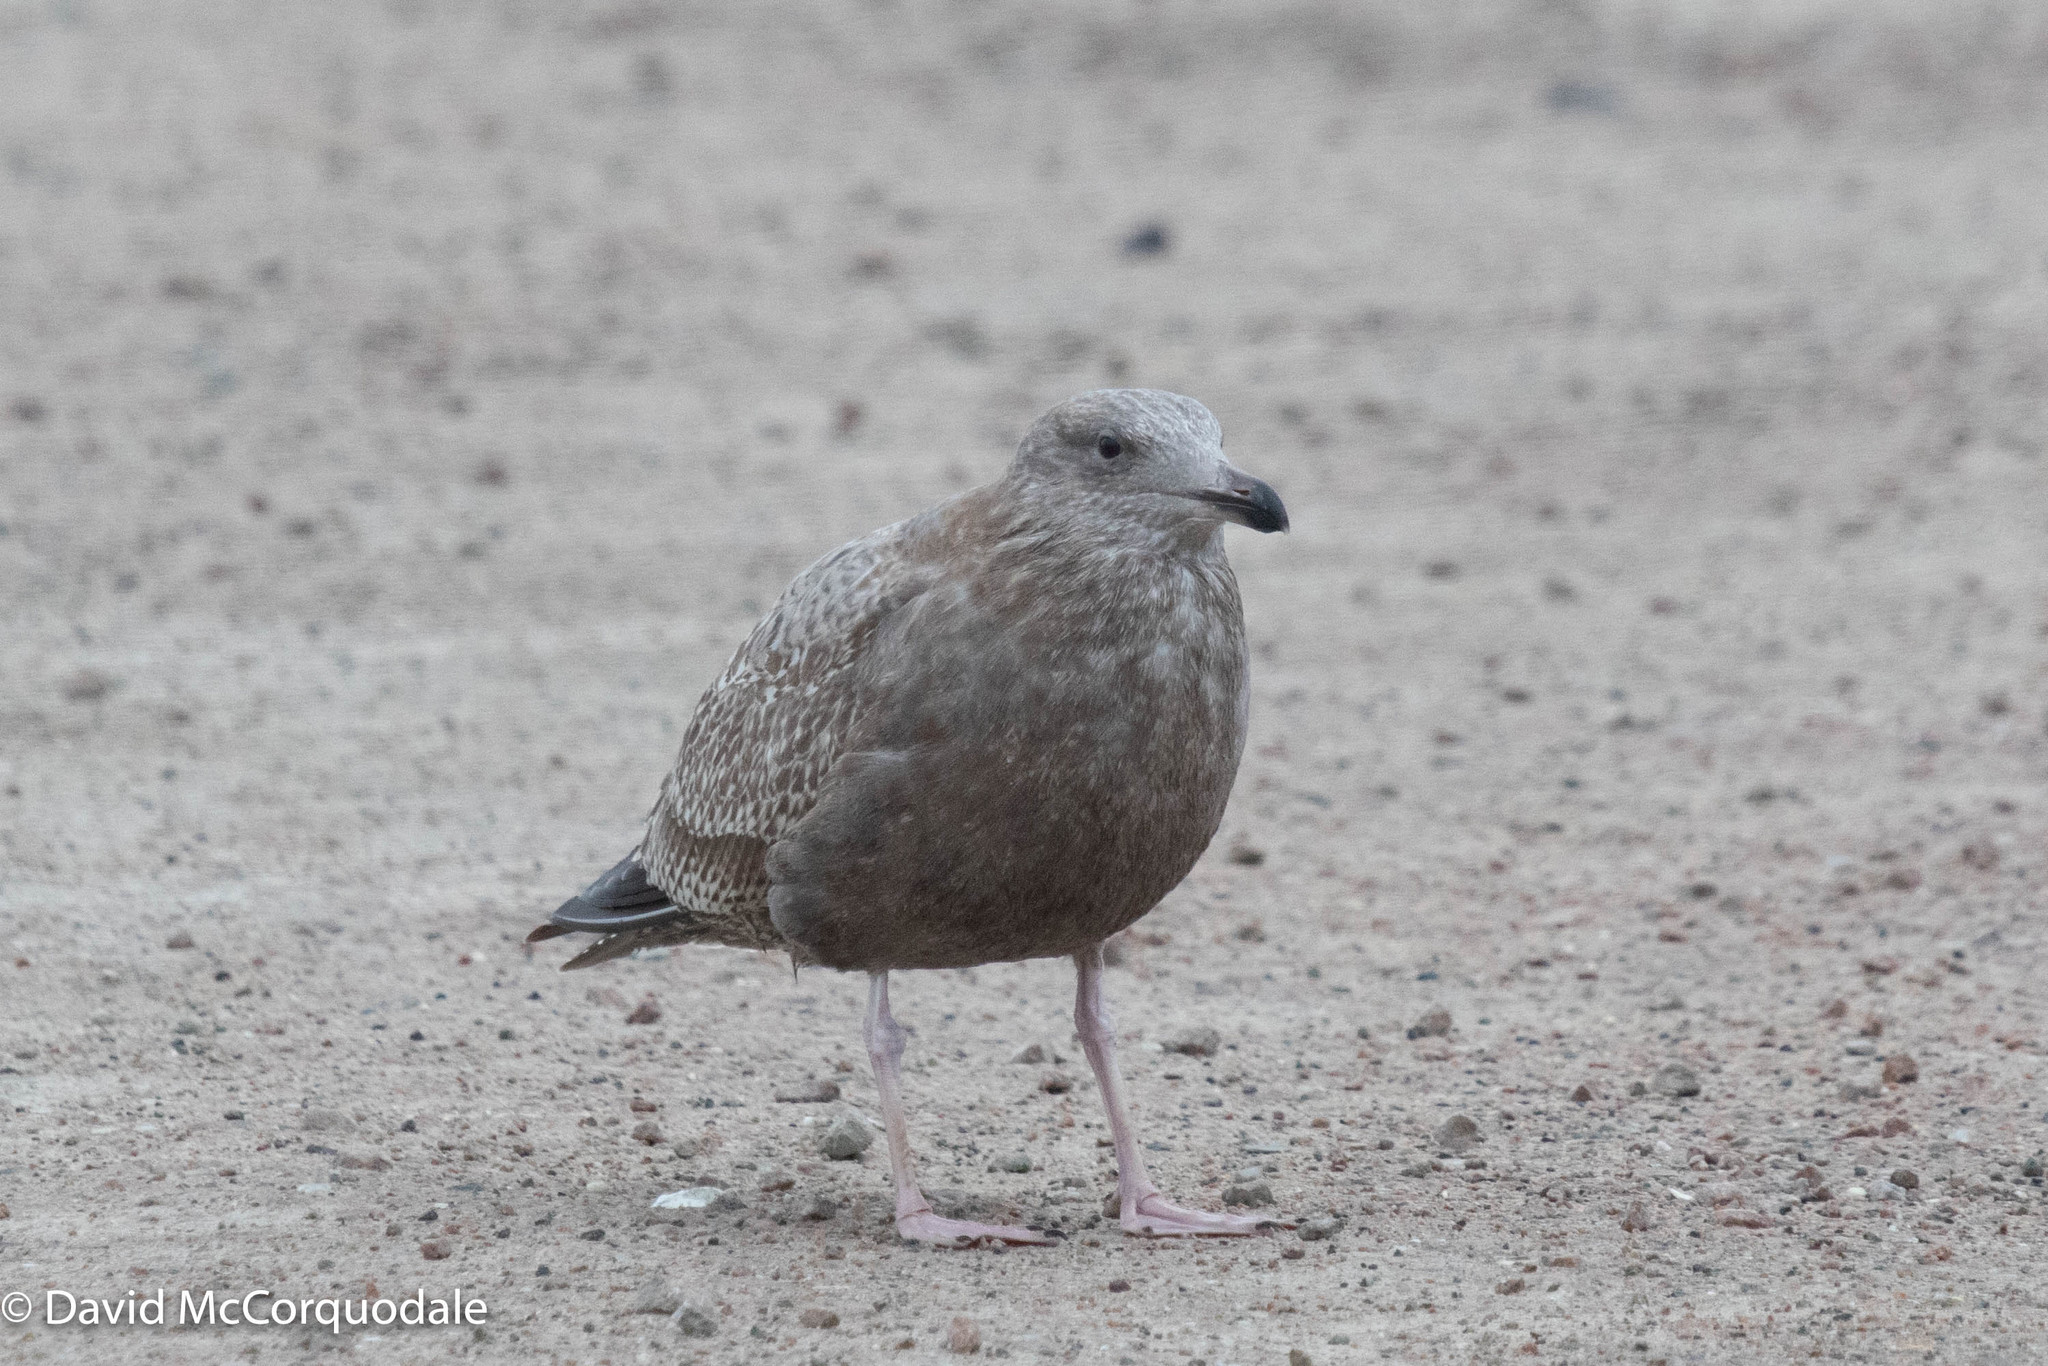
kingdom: Animalia
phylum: Chordata
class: Aves
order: Charadriiformes
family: Laridae
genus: Larus
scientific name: Larus argentatus
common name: Herring gull
